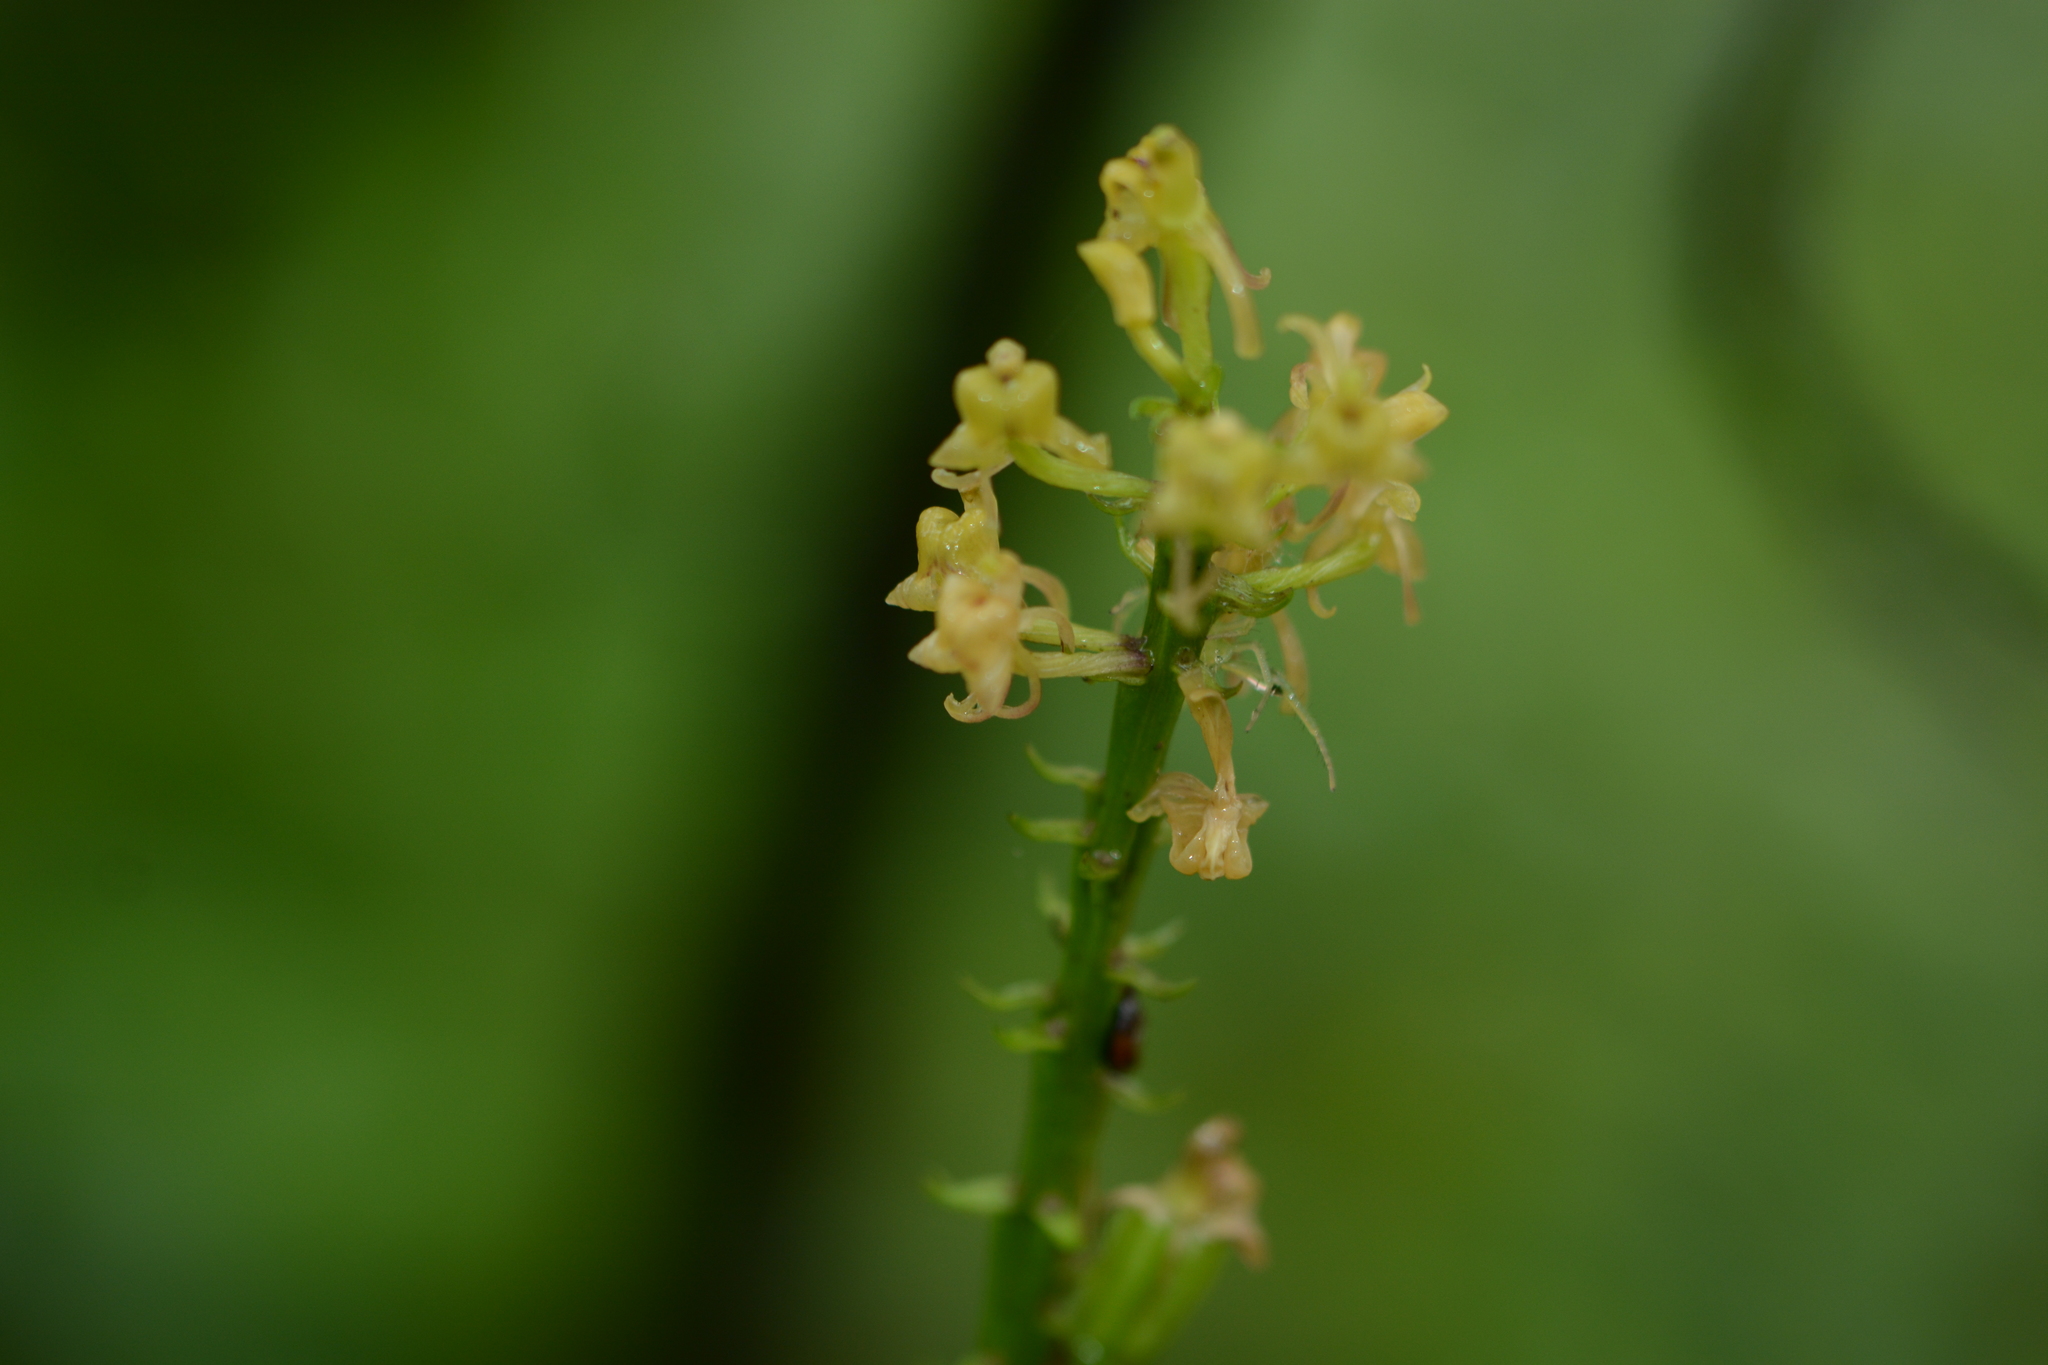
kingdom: Plantae
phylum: Tracheophyta
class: Liliopsida
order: Asparagales
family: Orchidaceae
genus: Liparis
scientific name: Liparis odorata
